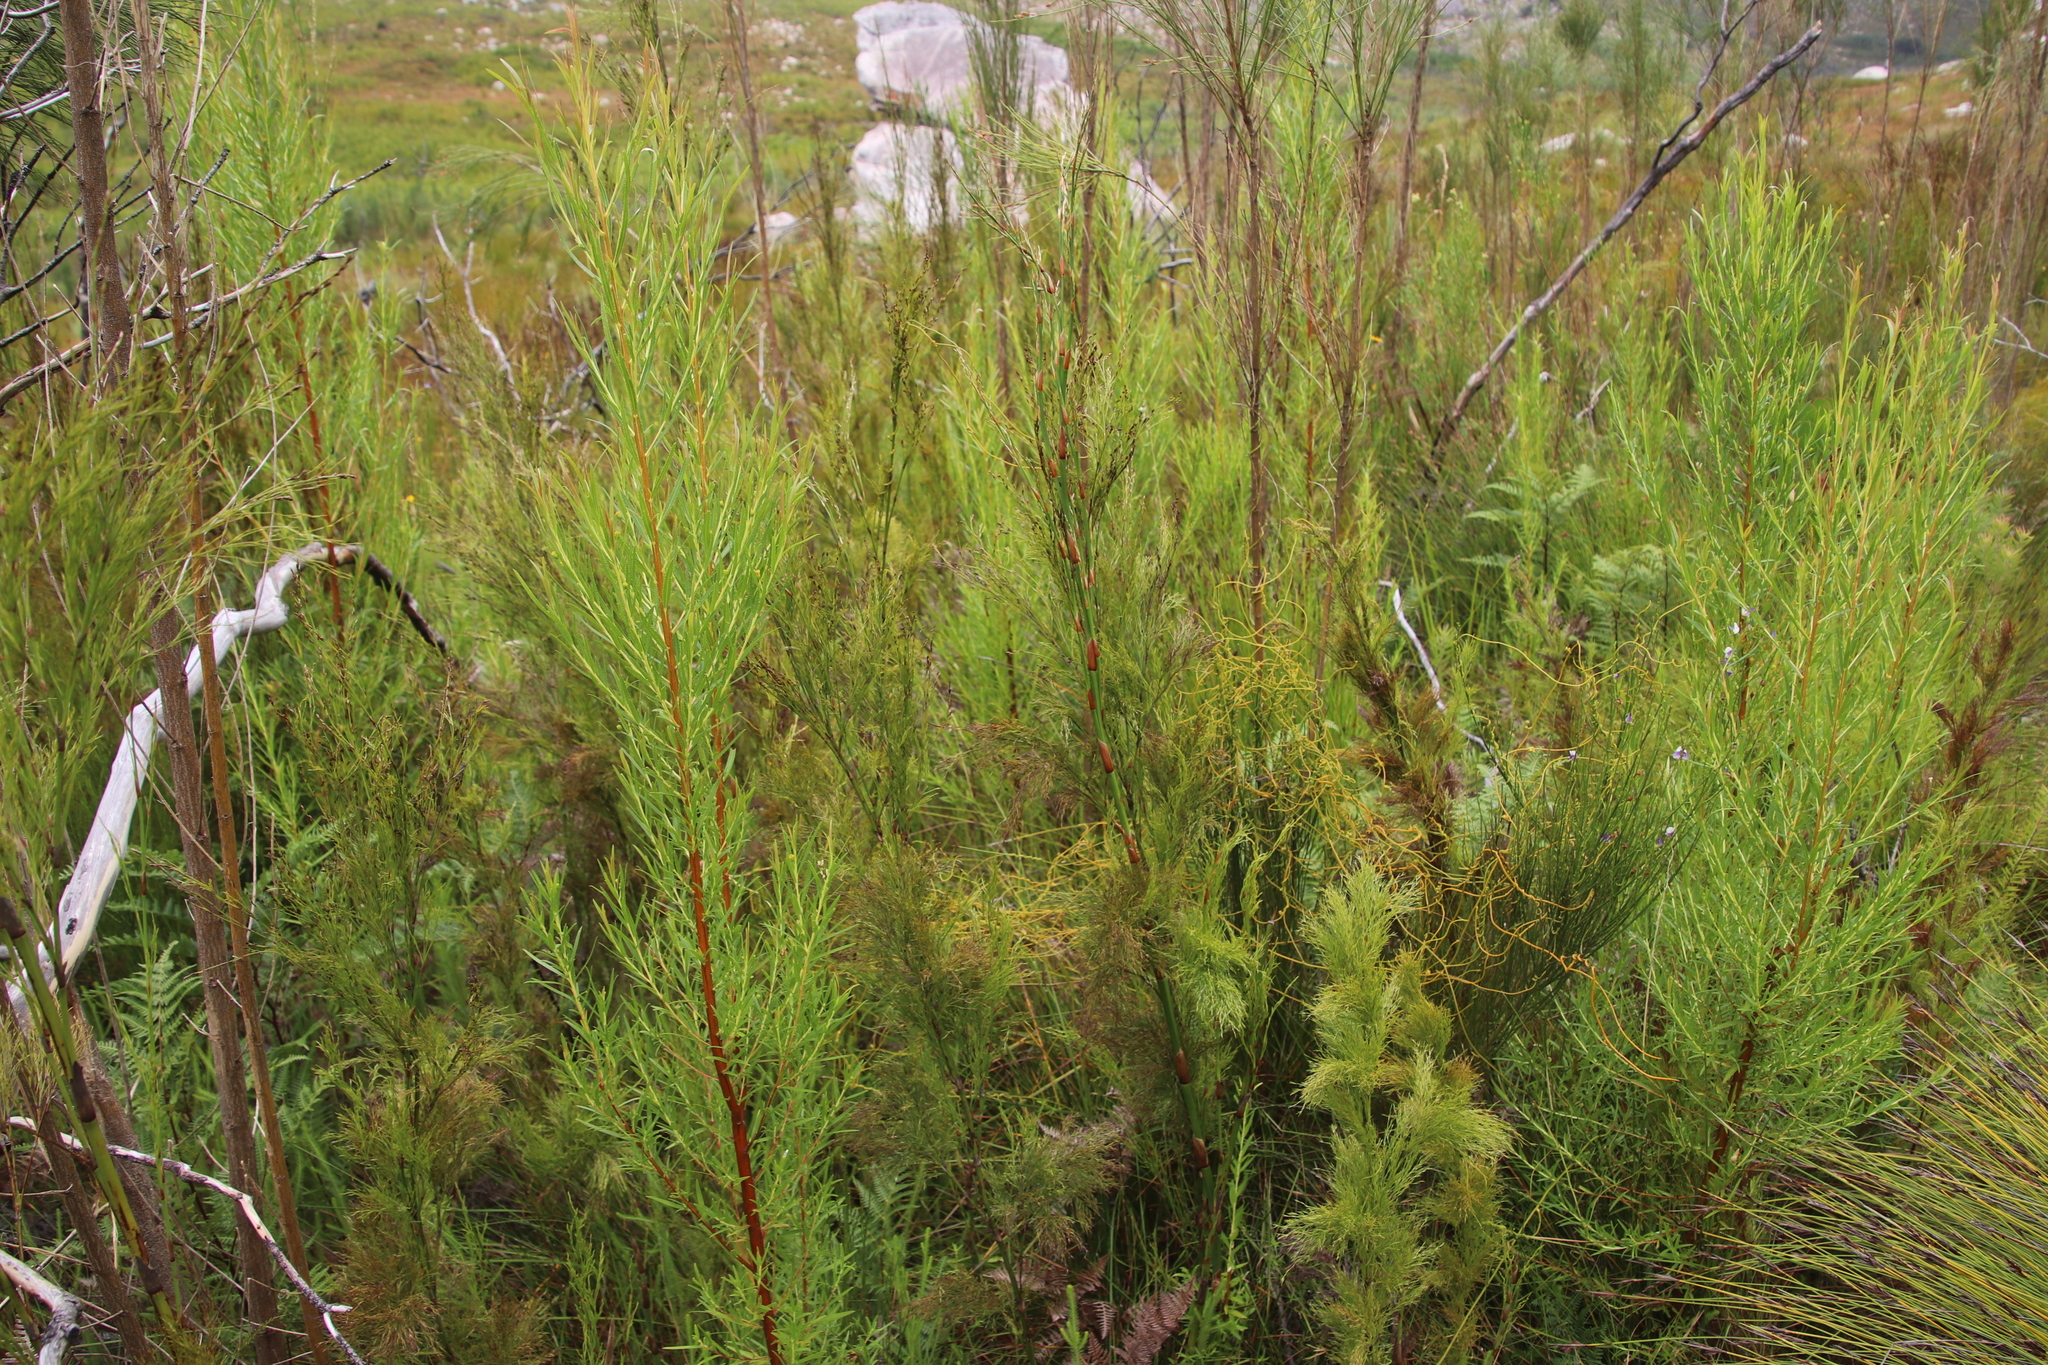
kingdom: Plantae
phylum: Tracheophyta
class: Liliopsida
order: Poales
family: Restionaceae
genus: Restio
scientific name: Restio paniculatus
